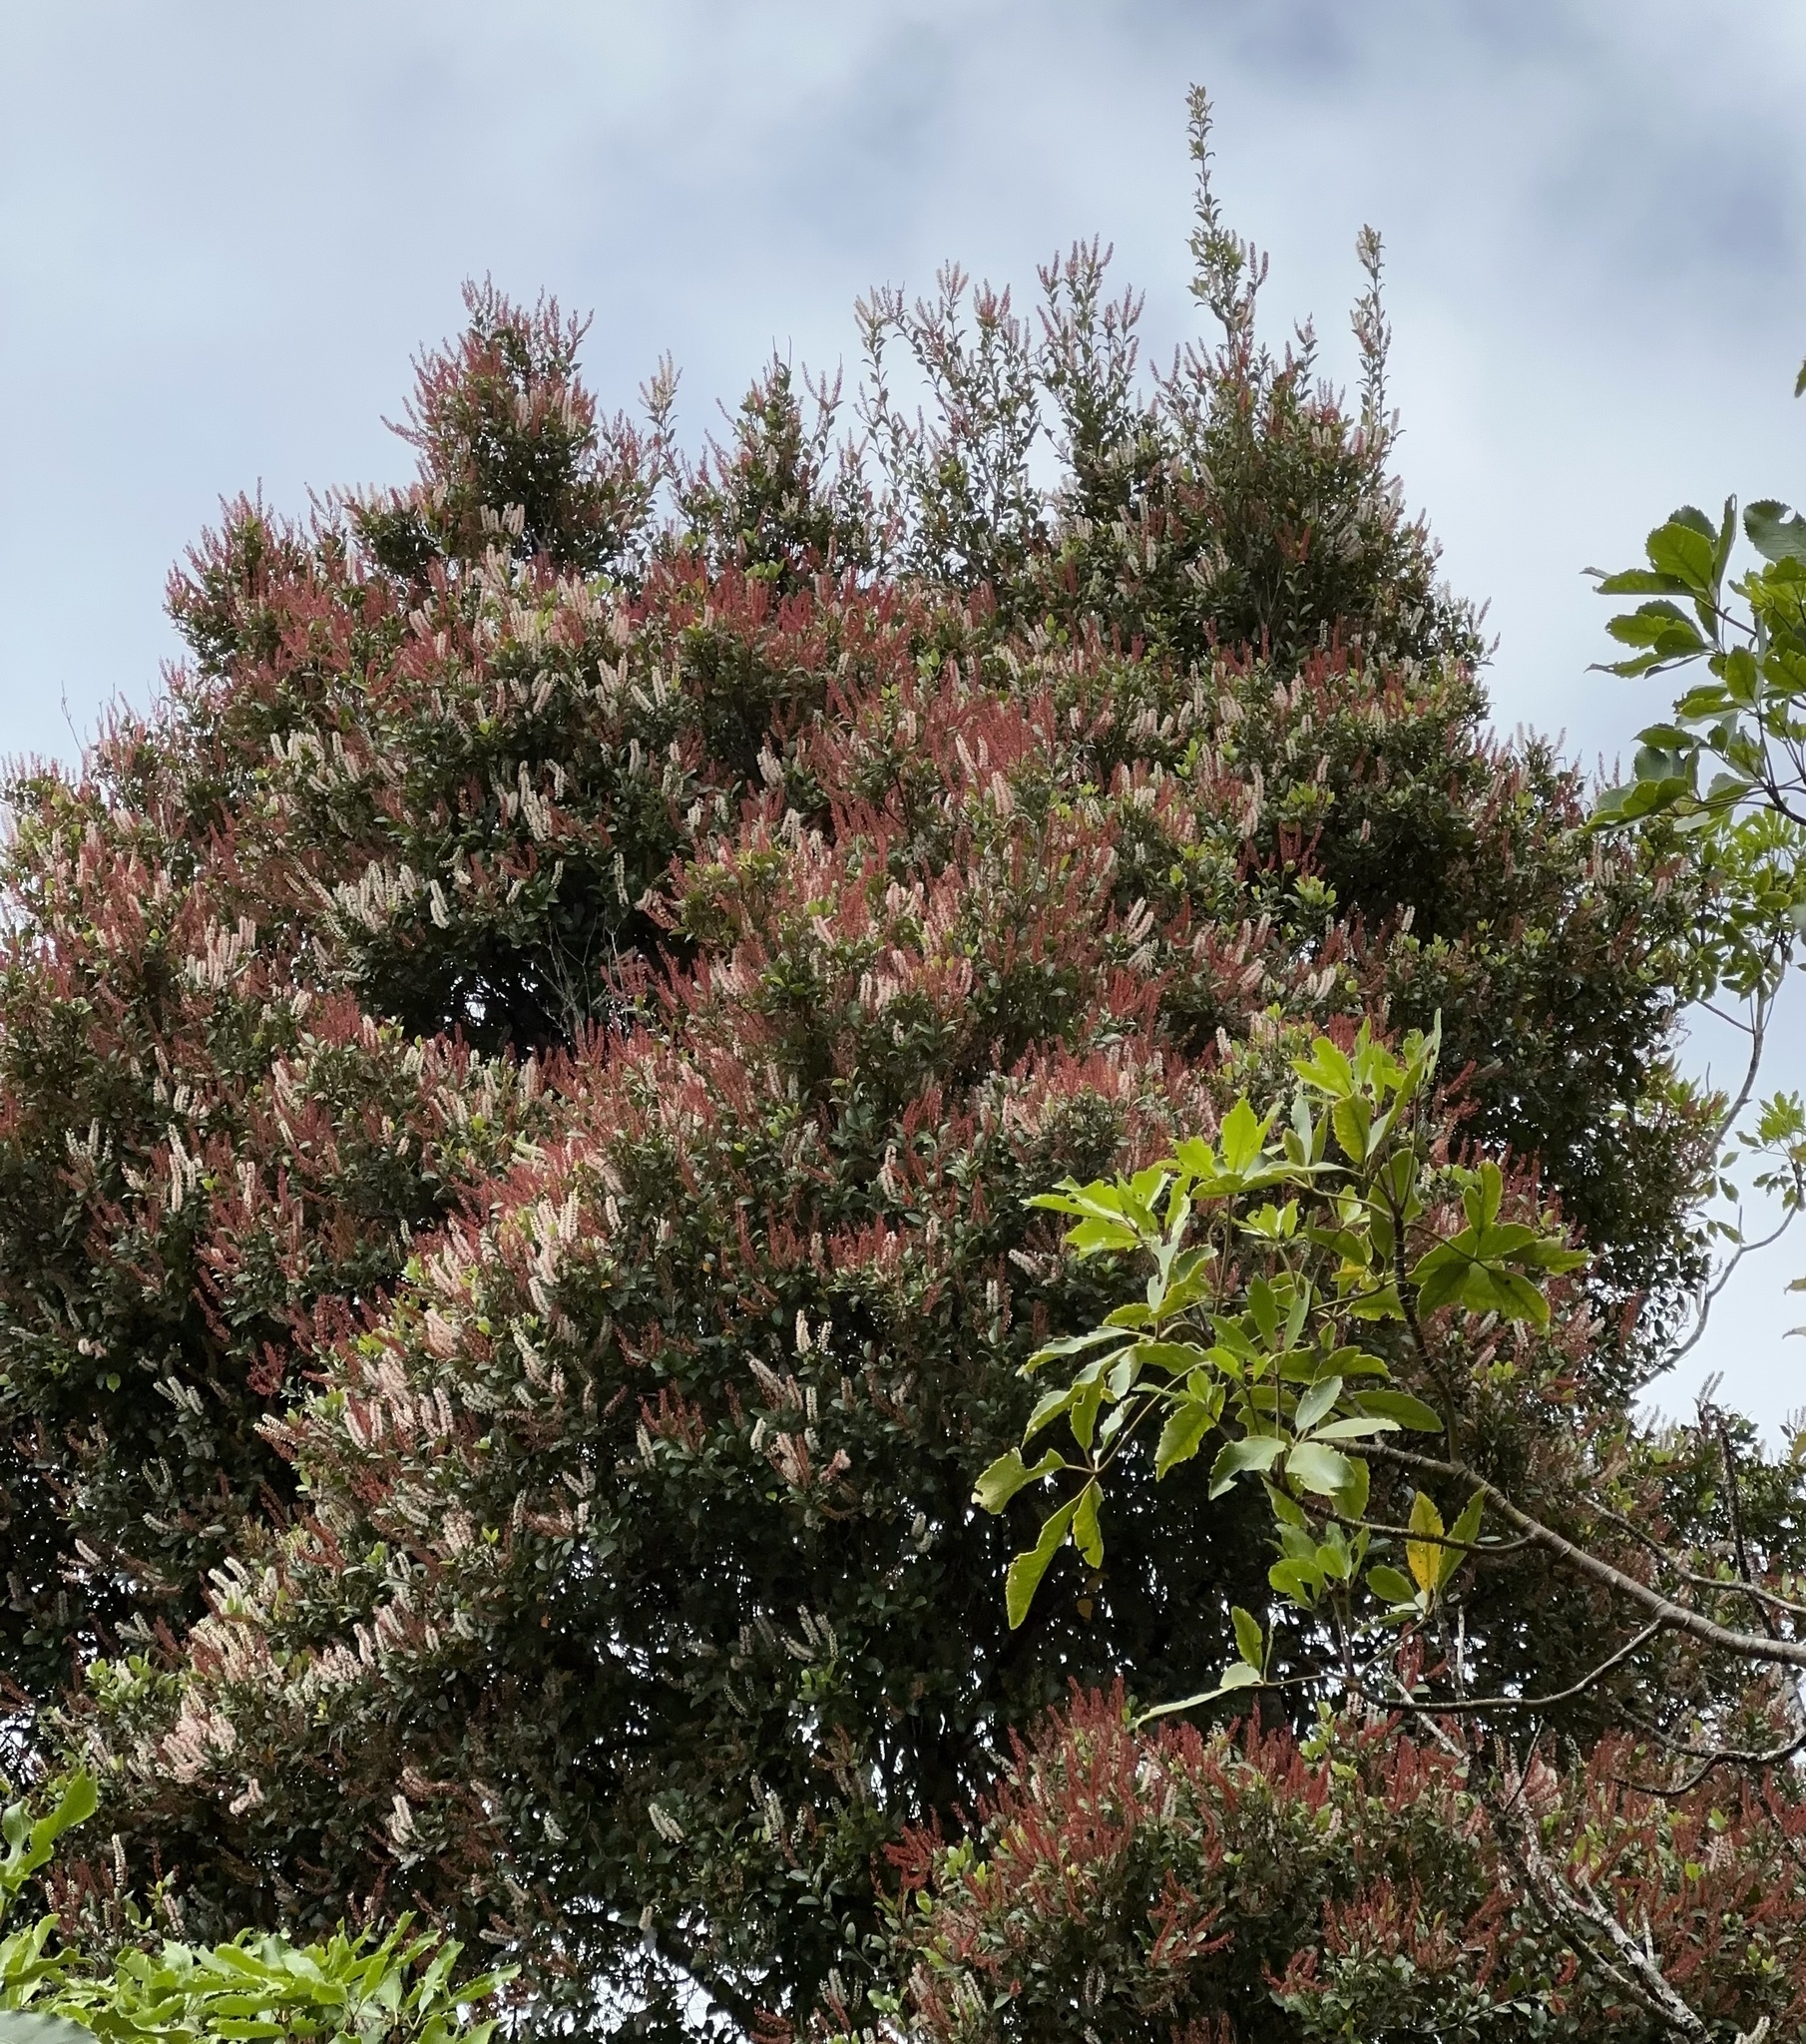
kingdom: Plantae
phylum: Tracheophyta
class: Magnoliopsida
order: Oxalidales
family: Cunoniaceae
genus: Pterophylla
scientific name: Pterophylla racemosa
